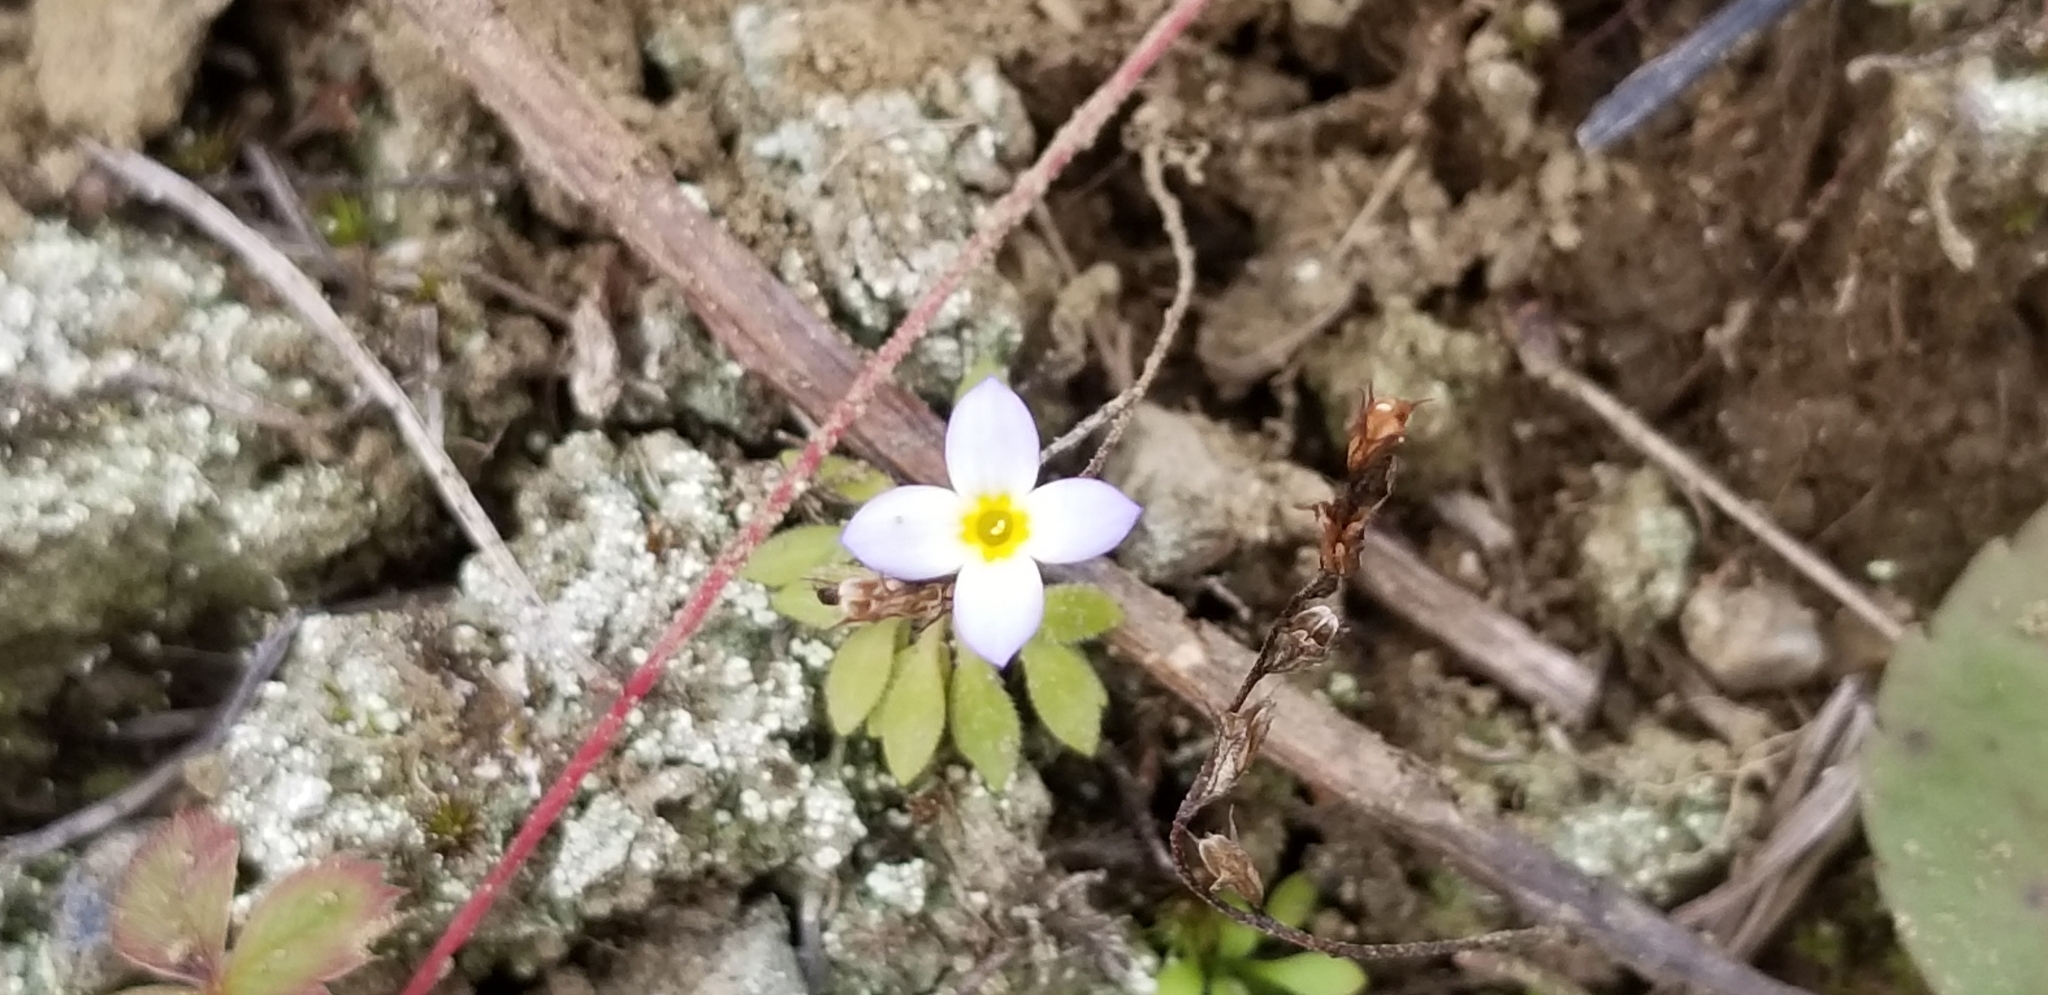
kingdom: Plantae
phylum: Tracheophyta
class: Magnoliopsida
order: Gentianales
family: Rubiaceae
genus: Houstonia
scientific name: Houstonia caerulea
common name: Bluets
